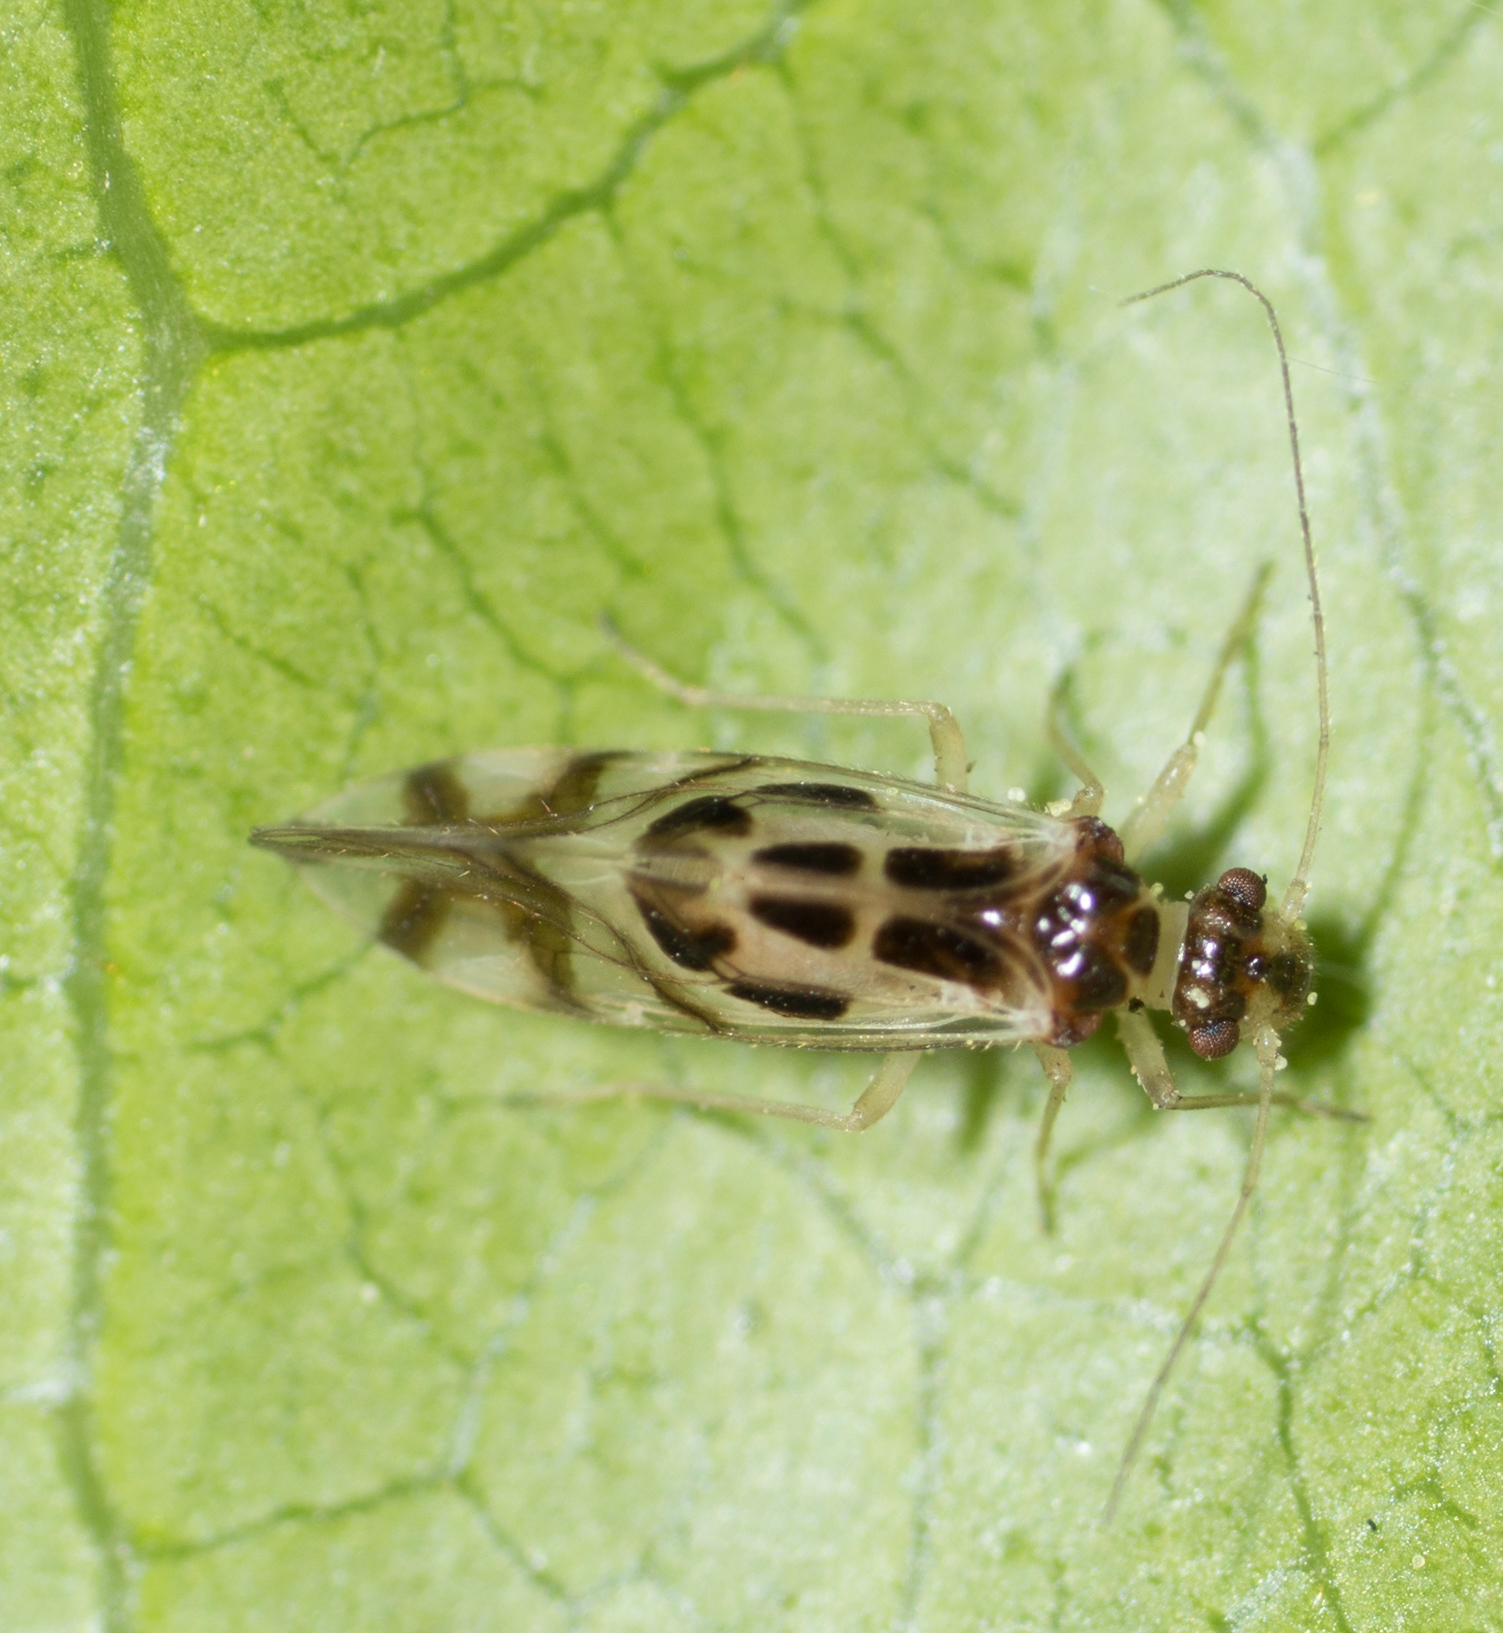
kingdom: Animalia
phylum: Arthropoda
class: Insecta
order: Psocodea
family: Stenopsocidae
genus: Graphopsocus
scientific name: Graphopsocus cruciatus
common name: Lizard bark louse
